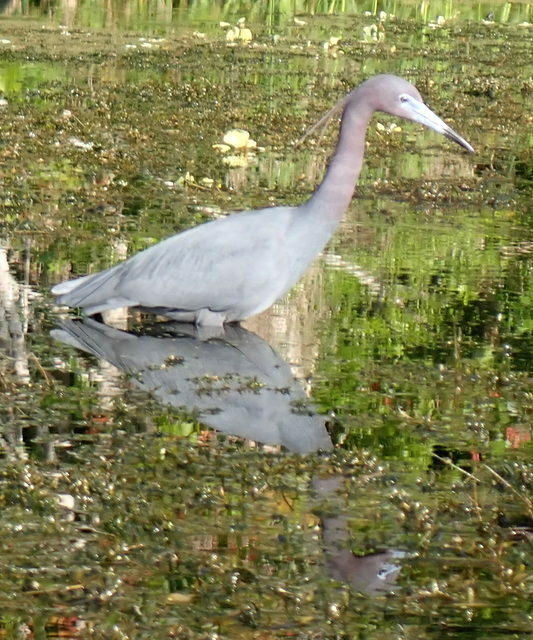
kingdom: Animalia
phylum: Chordata
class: Aves
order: Pelecaniformes
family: Ardeidae
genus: Egretta
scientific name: Egretta caerulea
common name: Little blue heron
